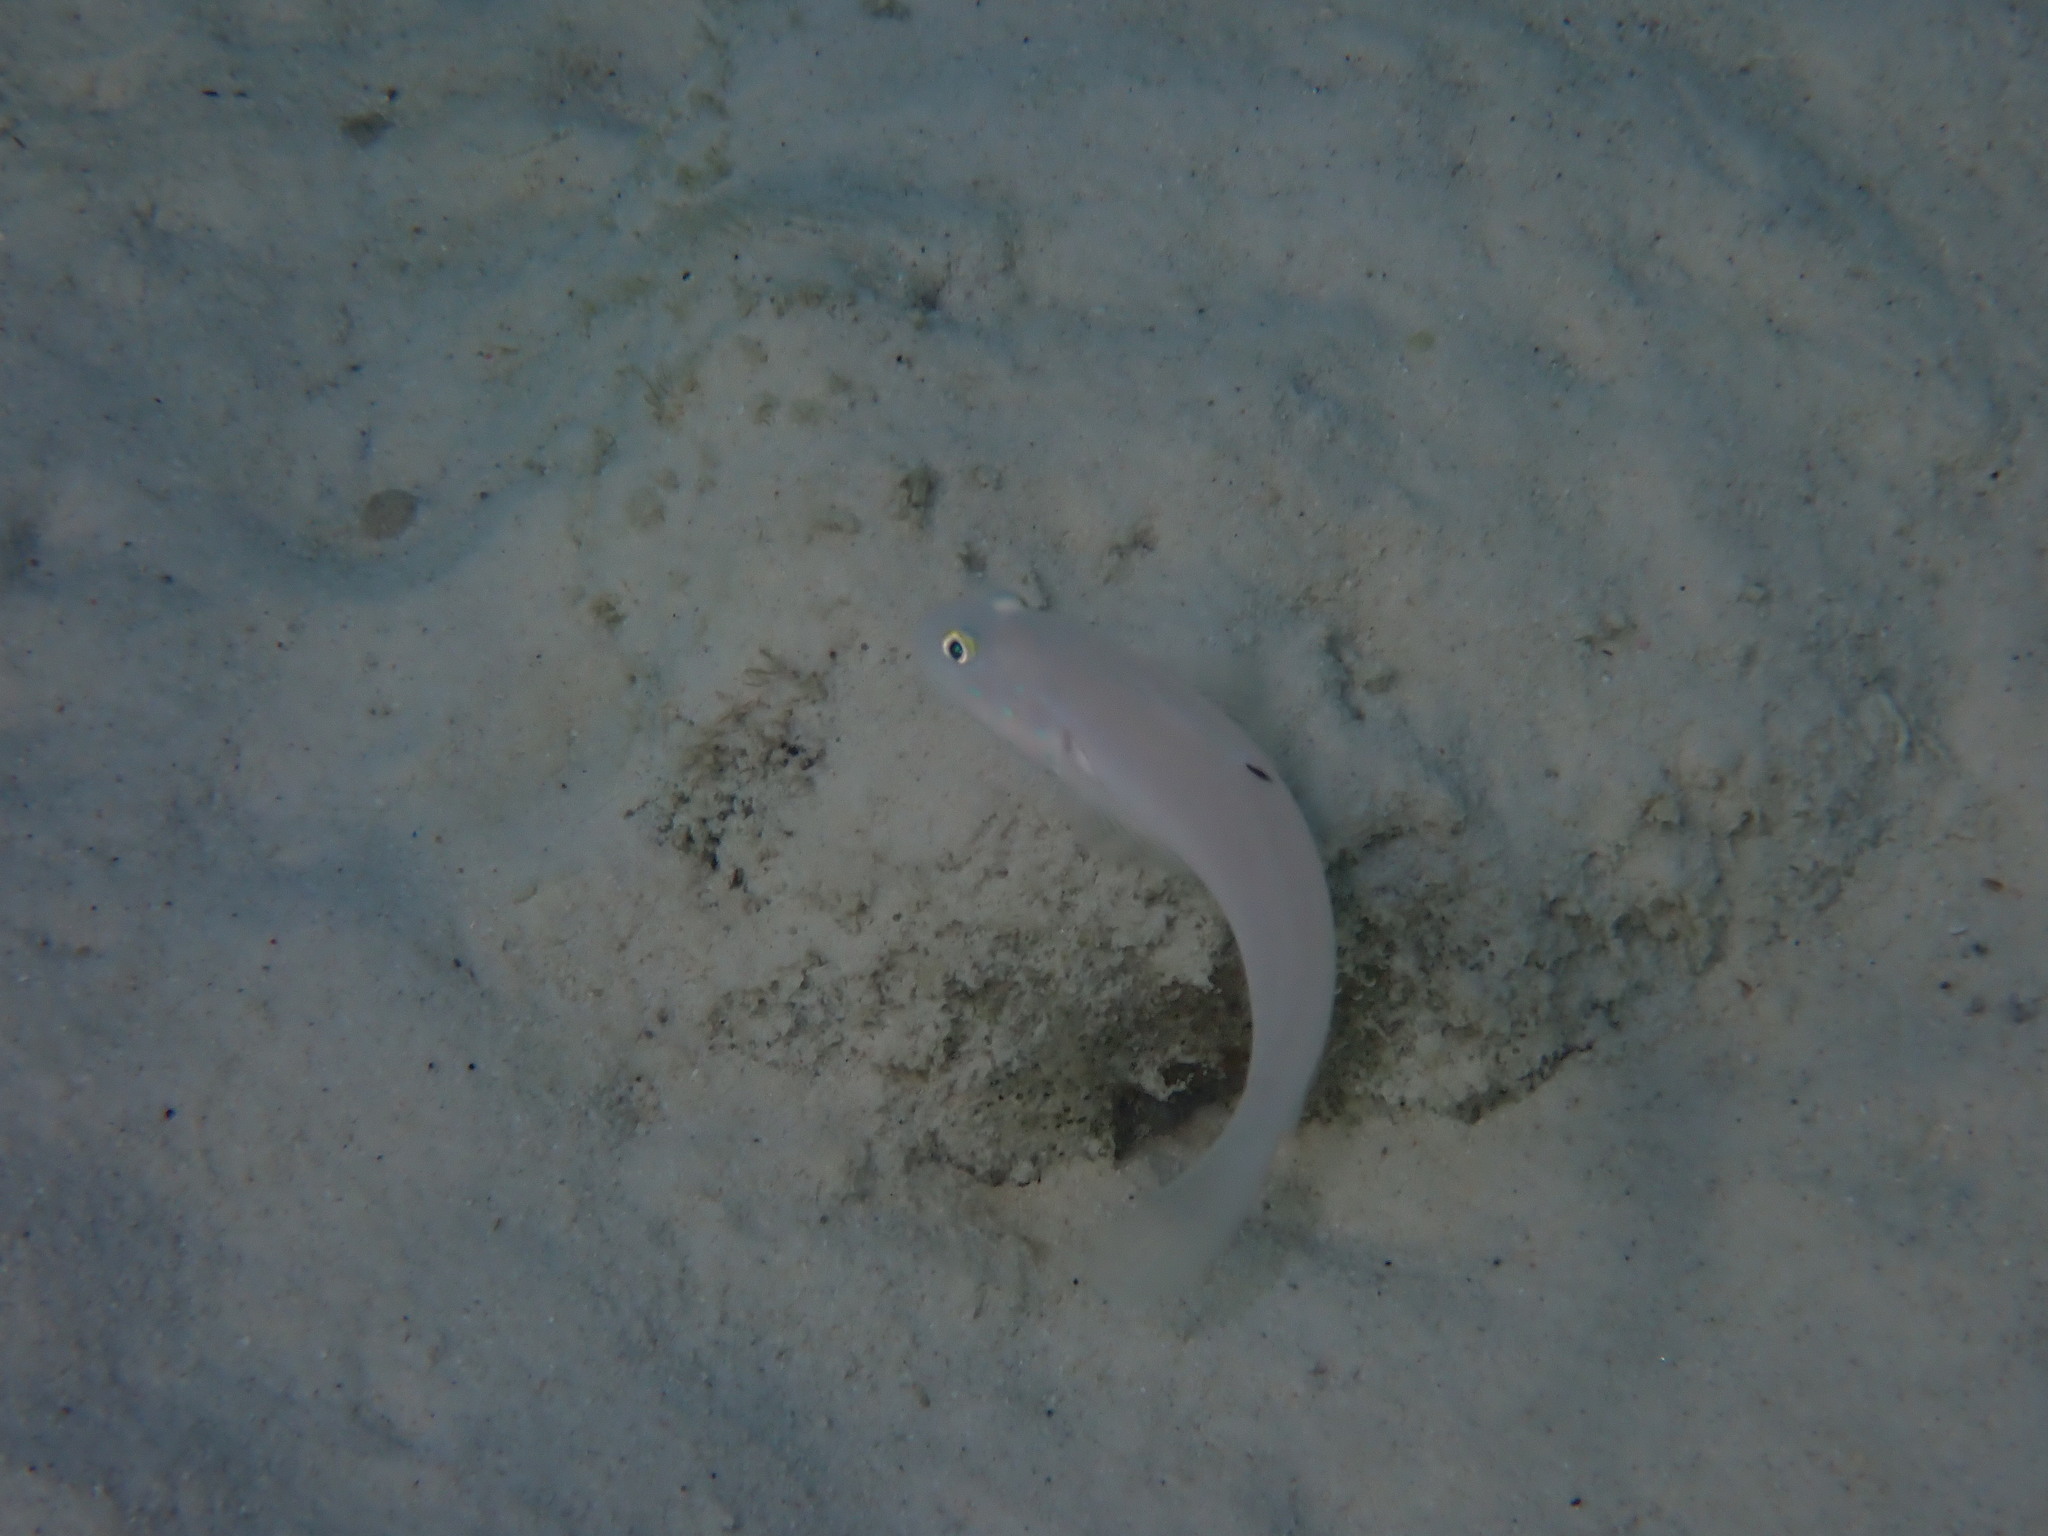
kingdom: Animalia
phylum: Chordata
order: Perciformes
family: Gobiidae
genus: Valenciennea
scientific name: Valenciennea sexguttata
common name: Sixspot goby
